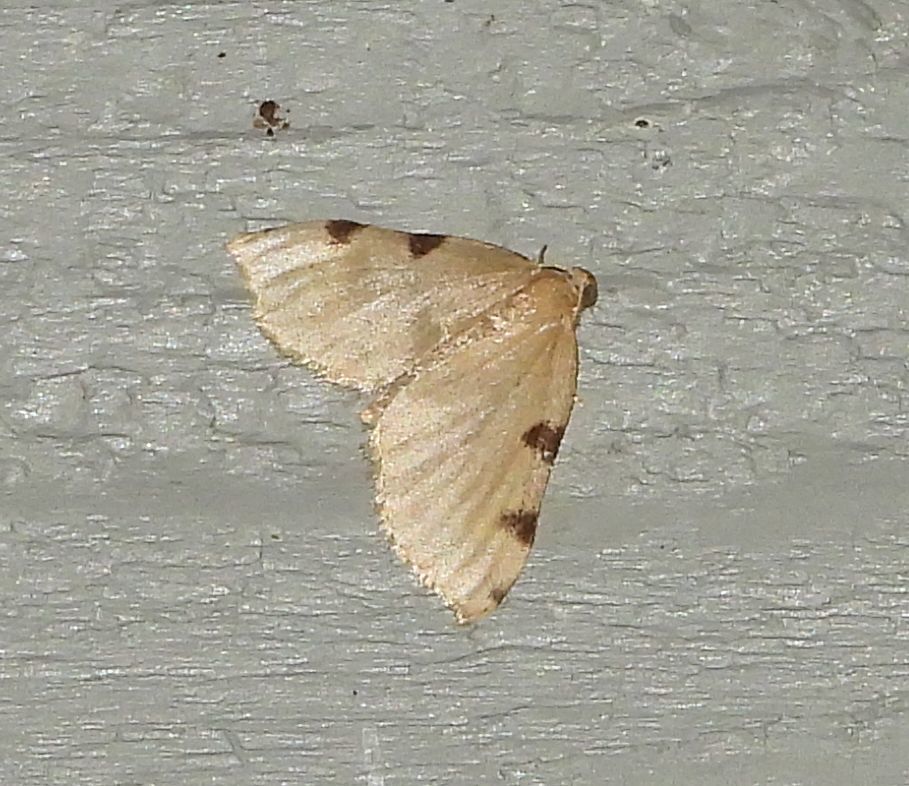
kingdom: Animalia
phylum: Arthropoda
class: Insecta
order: Lepidoptera
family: Geometridae
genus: Heterophleps
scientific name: Heterophleps triguttaria
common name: Three-spotted fillip
